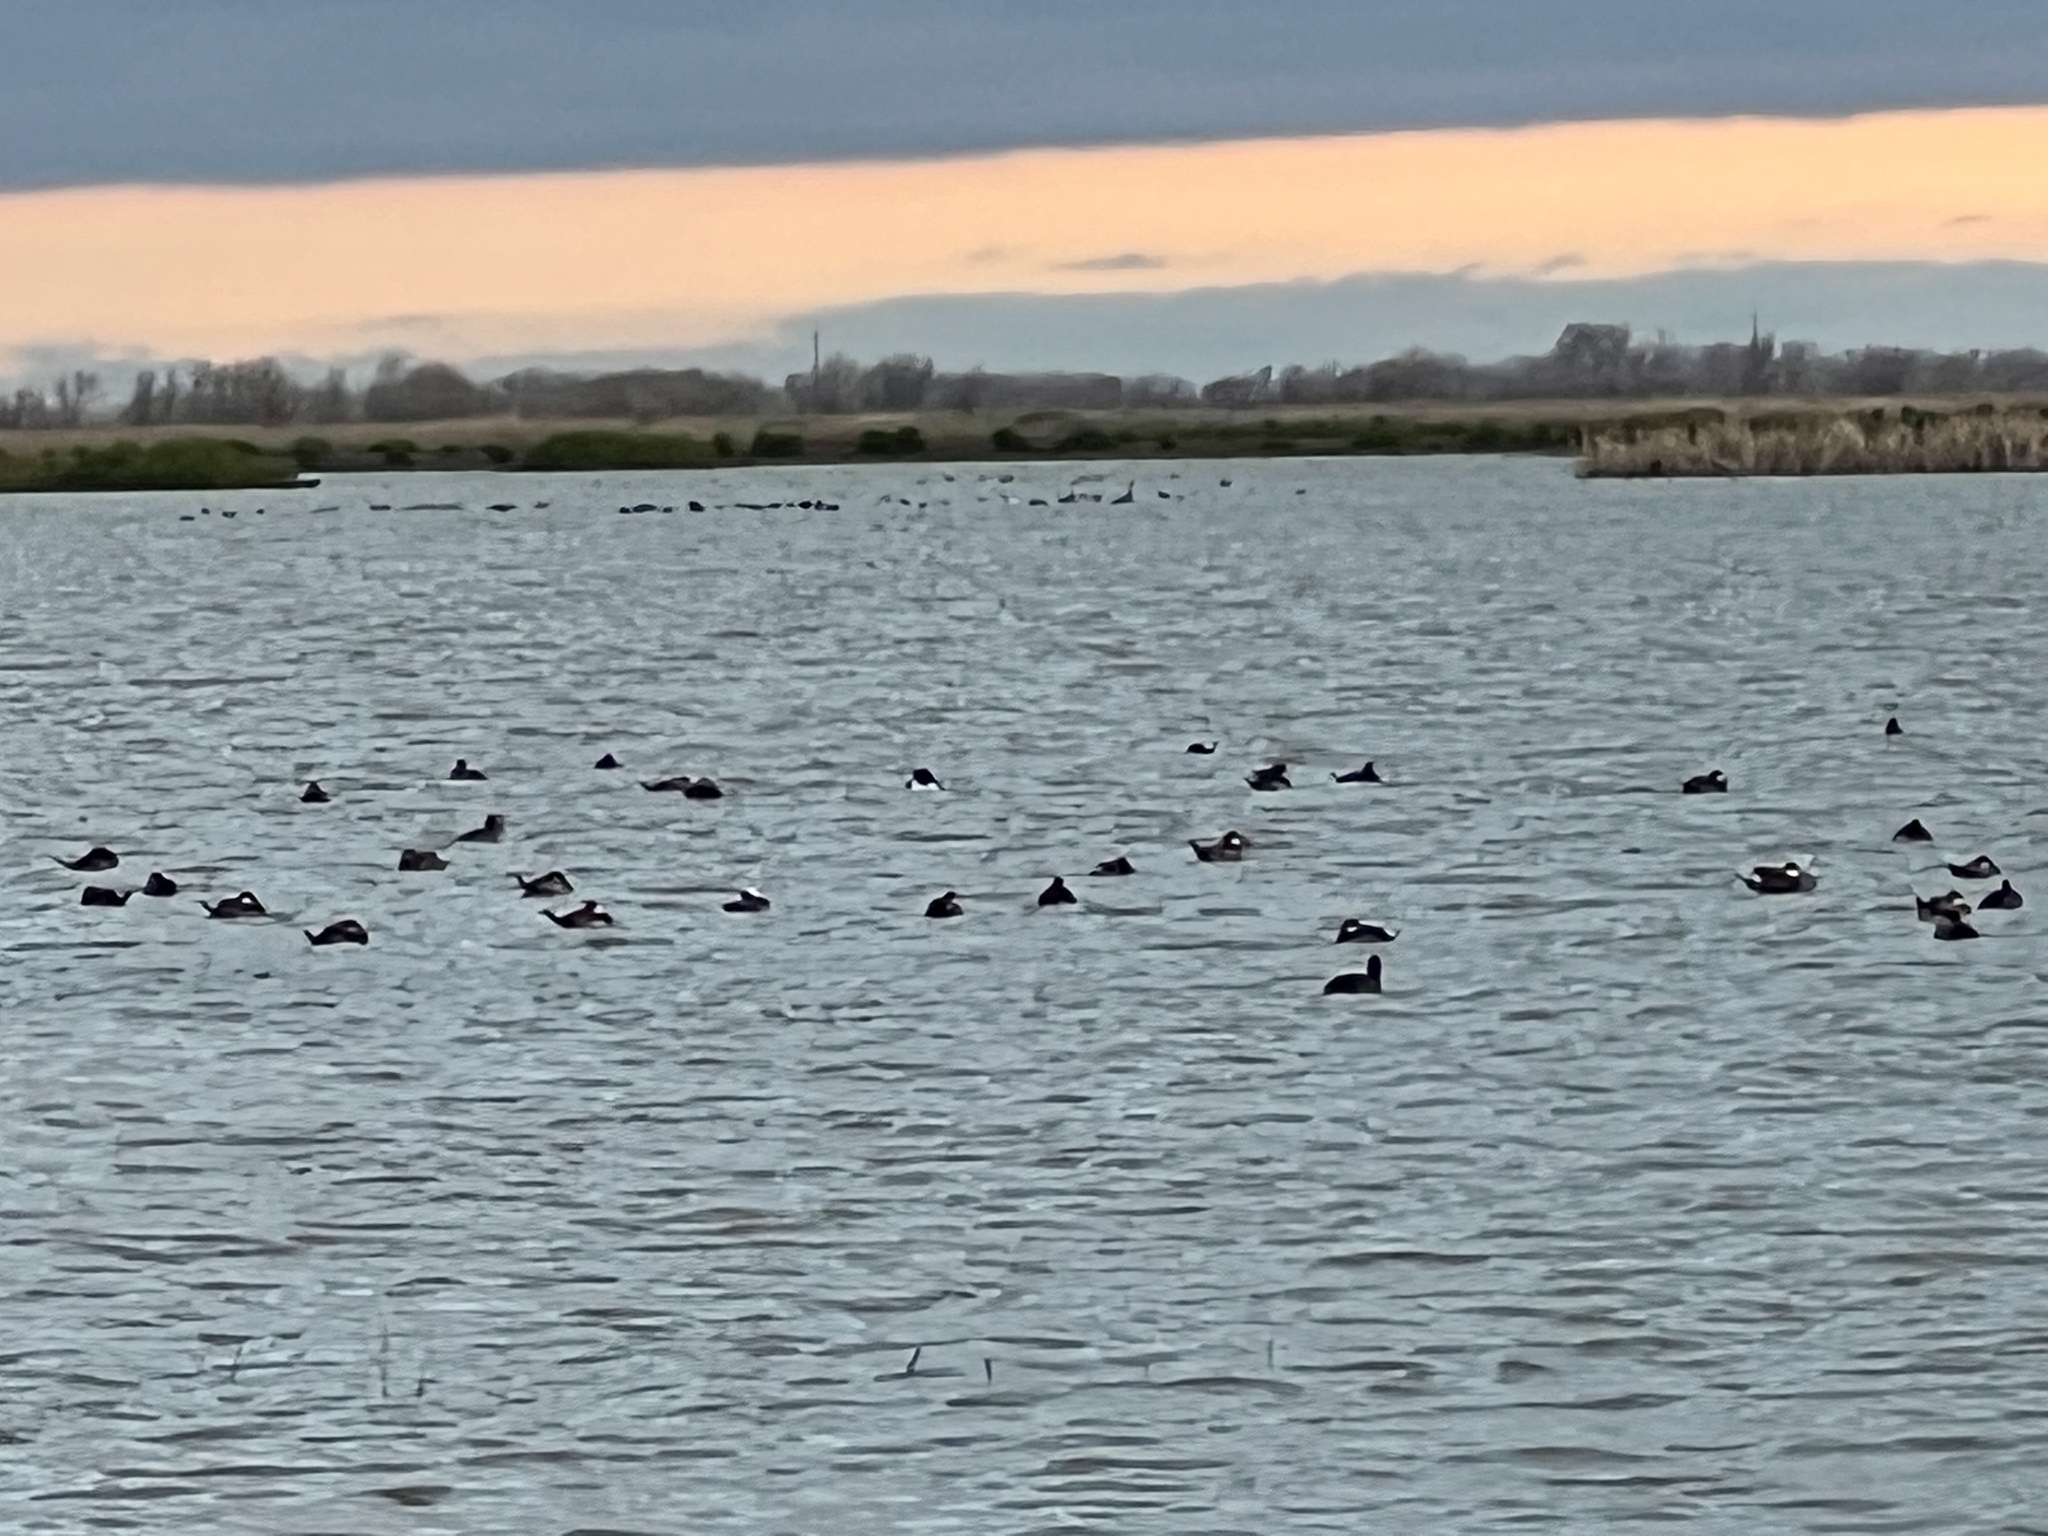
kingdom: Animalia
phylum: Chordata
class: Aves
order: Anseriformes
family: Anatidae
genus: Oxyura
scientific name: Oxyura jamaicensis
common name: Ruddy duck
